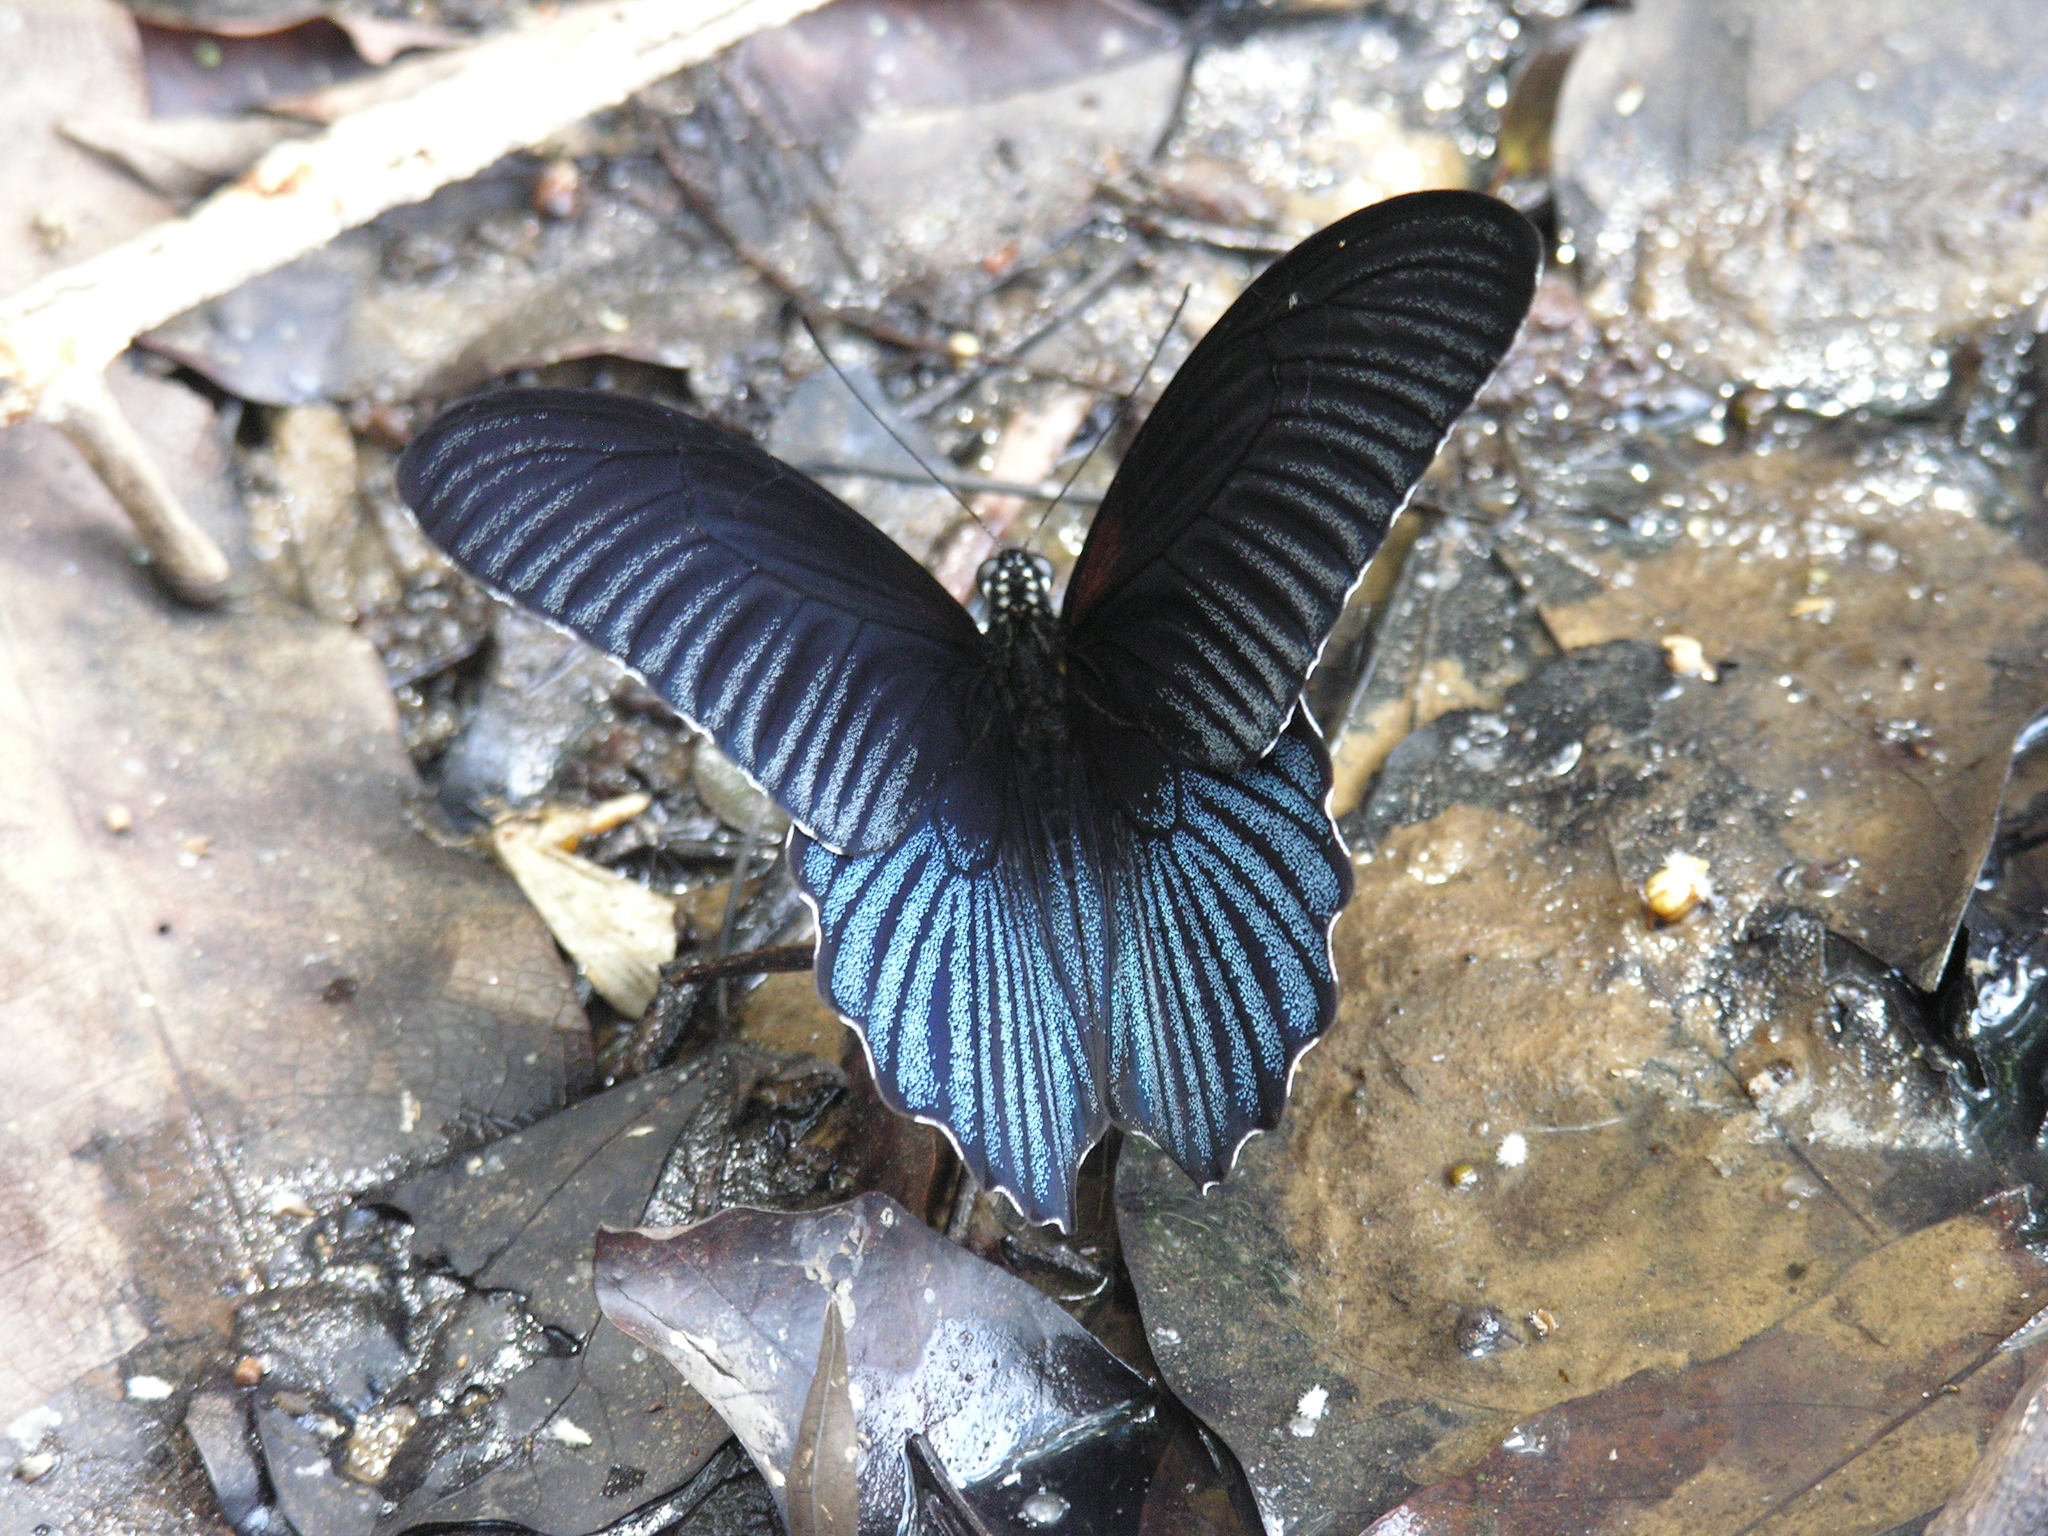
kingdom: Animalia
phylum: Arthropoda
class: Insecta
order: Lepidoptera
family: Papilionidae
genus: Papilio
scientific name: Papilio memnon
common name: Great mormon
